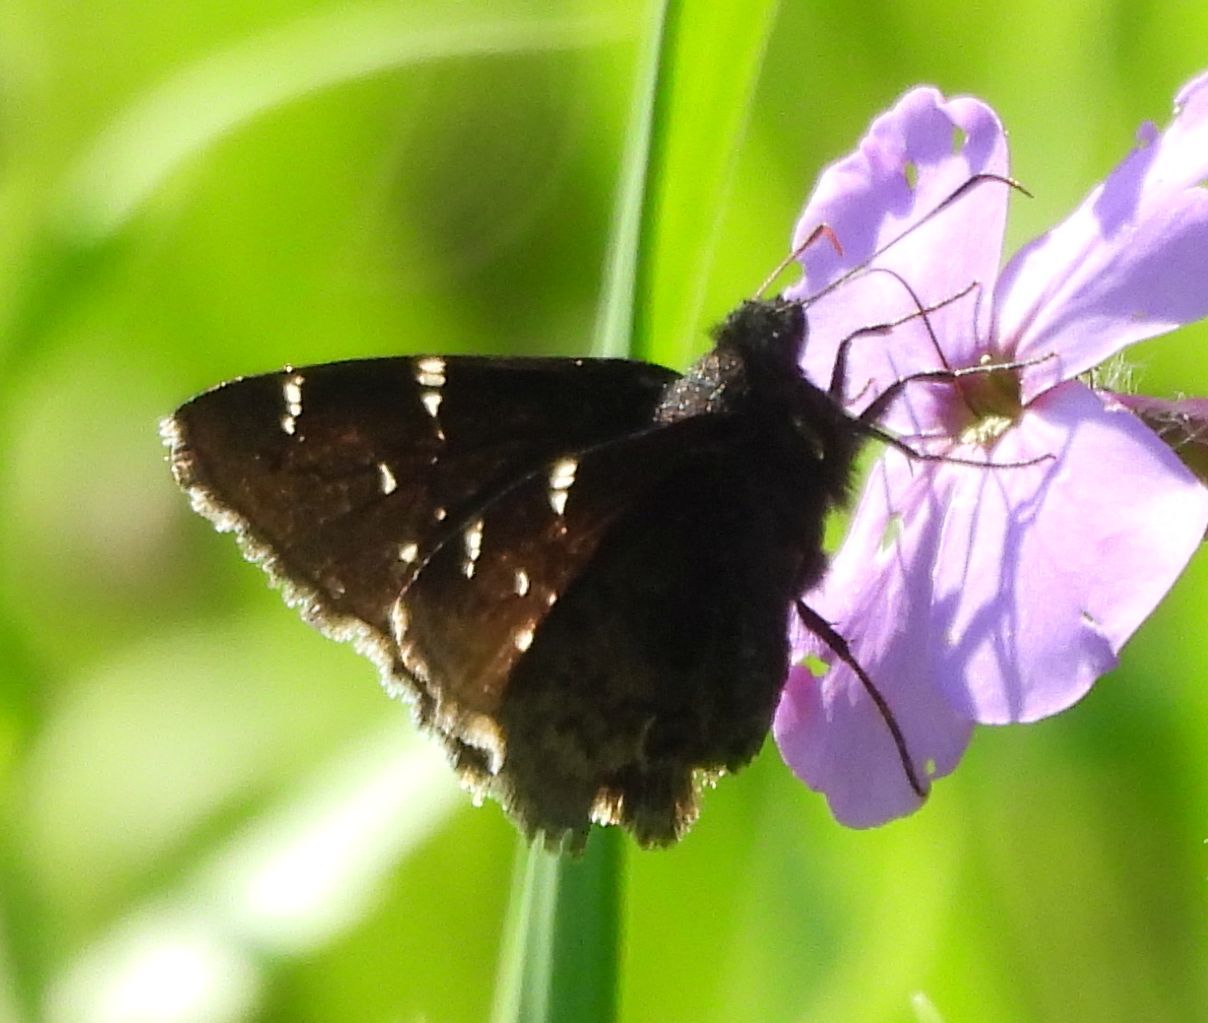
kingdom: Animalia
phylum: Arthropoda
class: Insecta
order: Lepidoptera
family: Hesperiidae
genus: Thorybes
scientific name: Thorybes pylades
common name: Northern cloudywing
